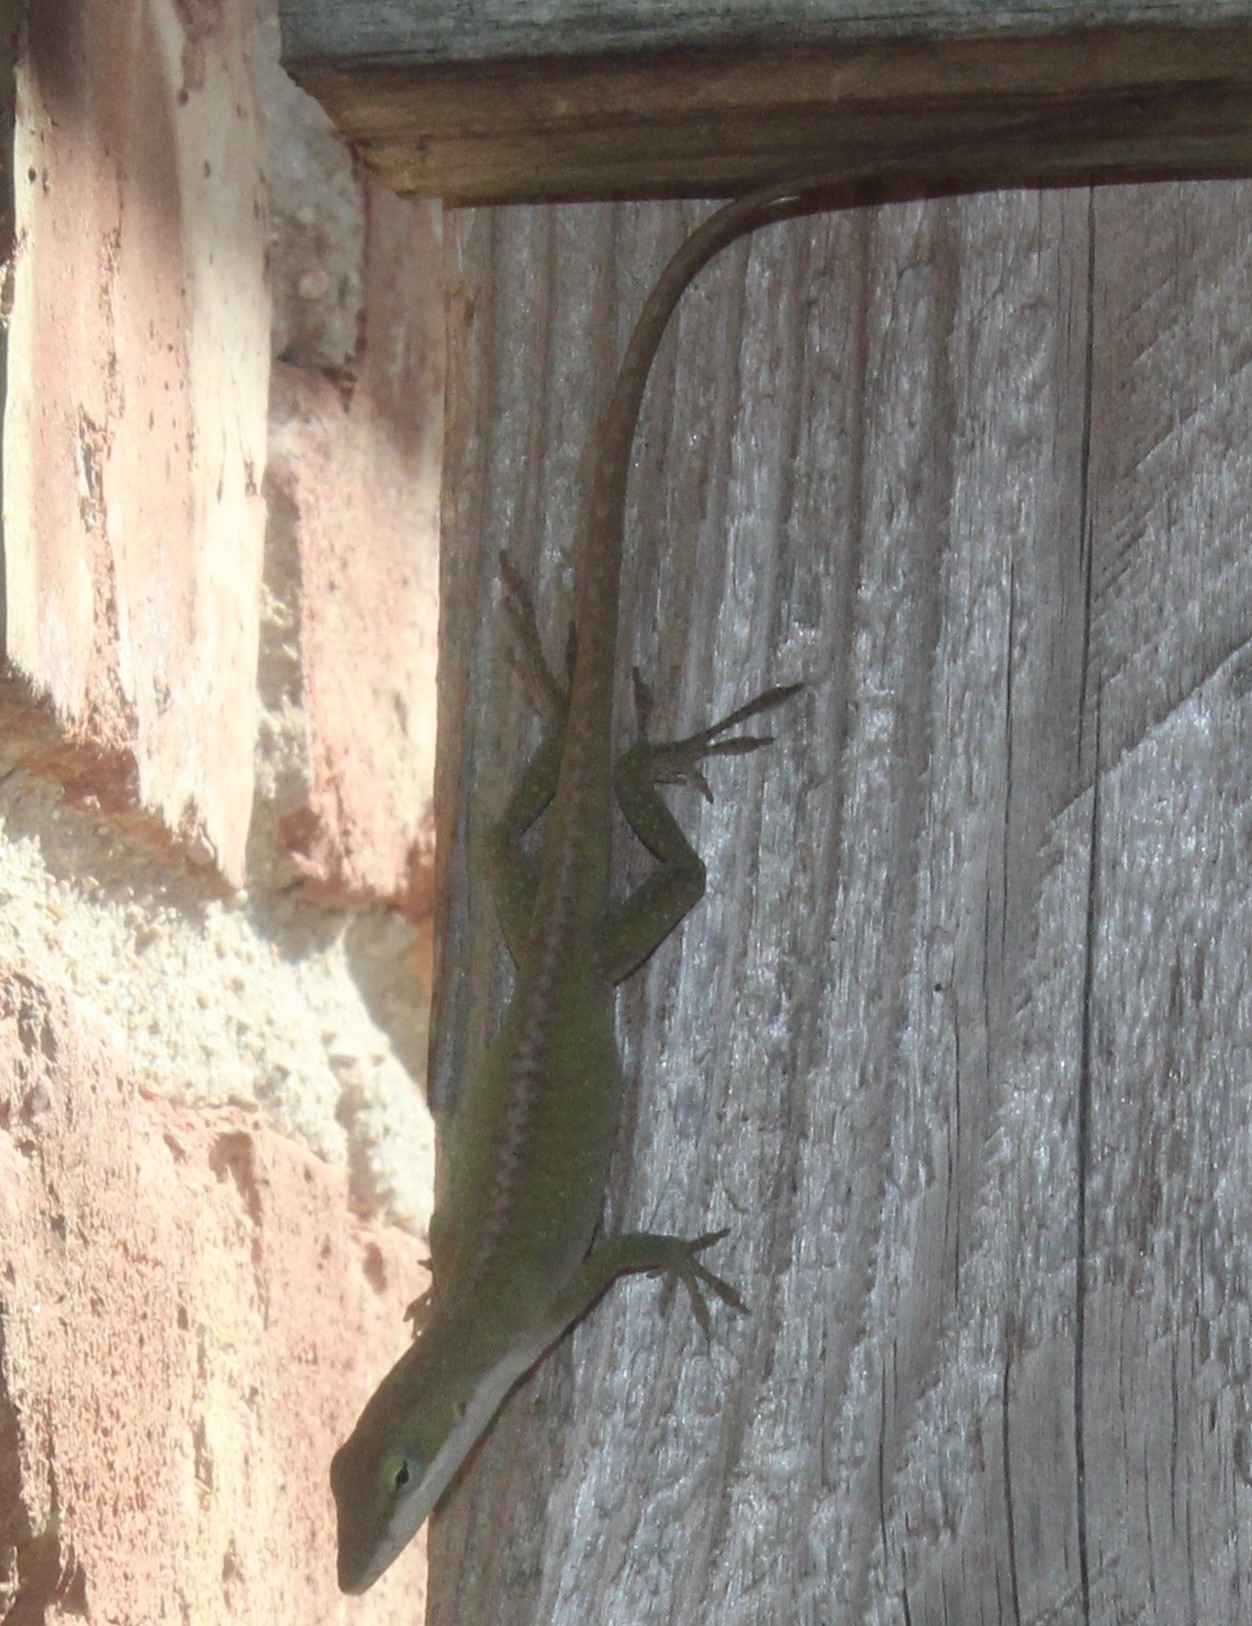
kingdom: Animalia
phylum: Chordata
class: Squamata
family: Dactyloidae
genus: Anolis
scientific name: Anolis carolinensis
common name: Green anole
